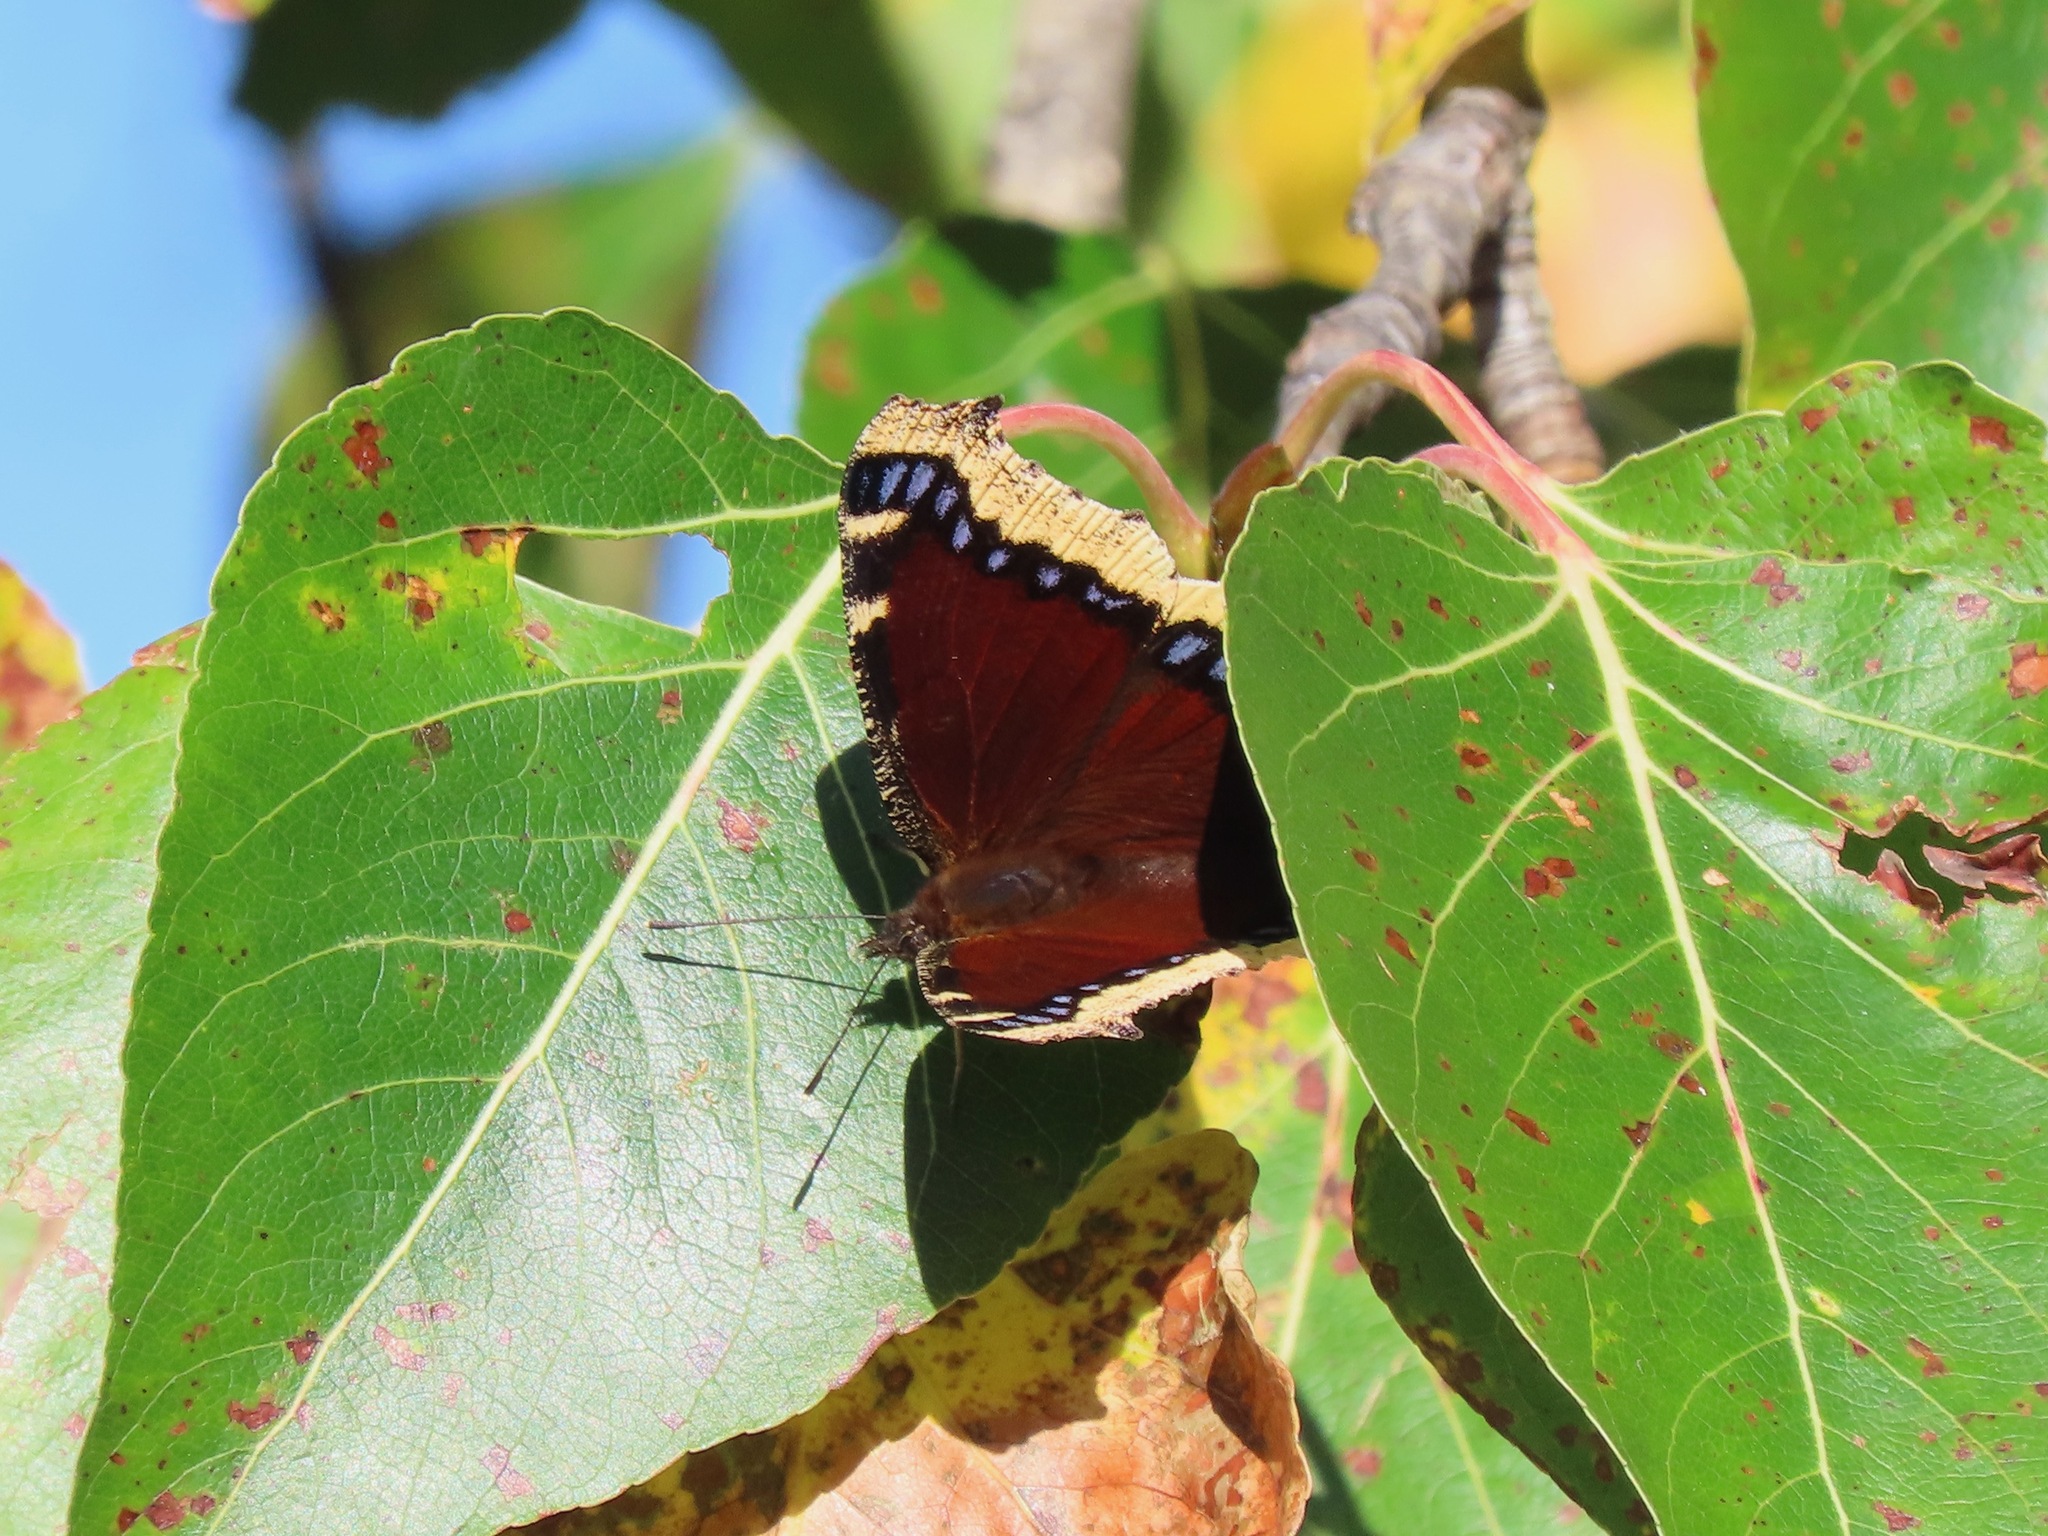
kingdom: Animalia
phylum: Arthropoda
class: Insecta
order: Lepidoptera
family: Nymphalidae
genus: Nymphalis
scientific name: Nymphalis antiopa
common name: Camberwell beauty
